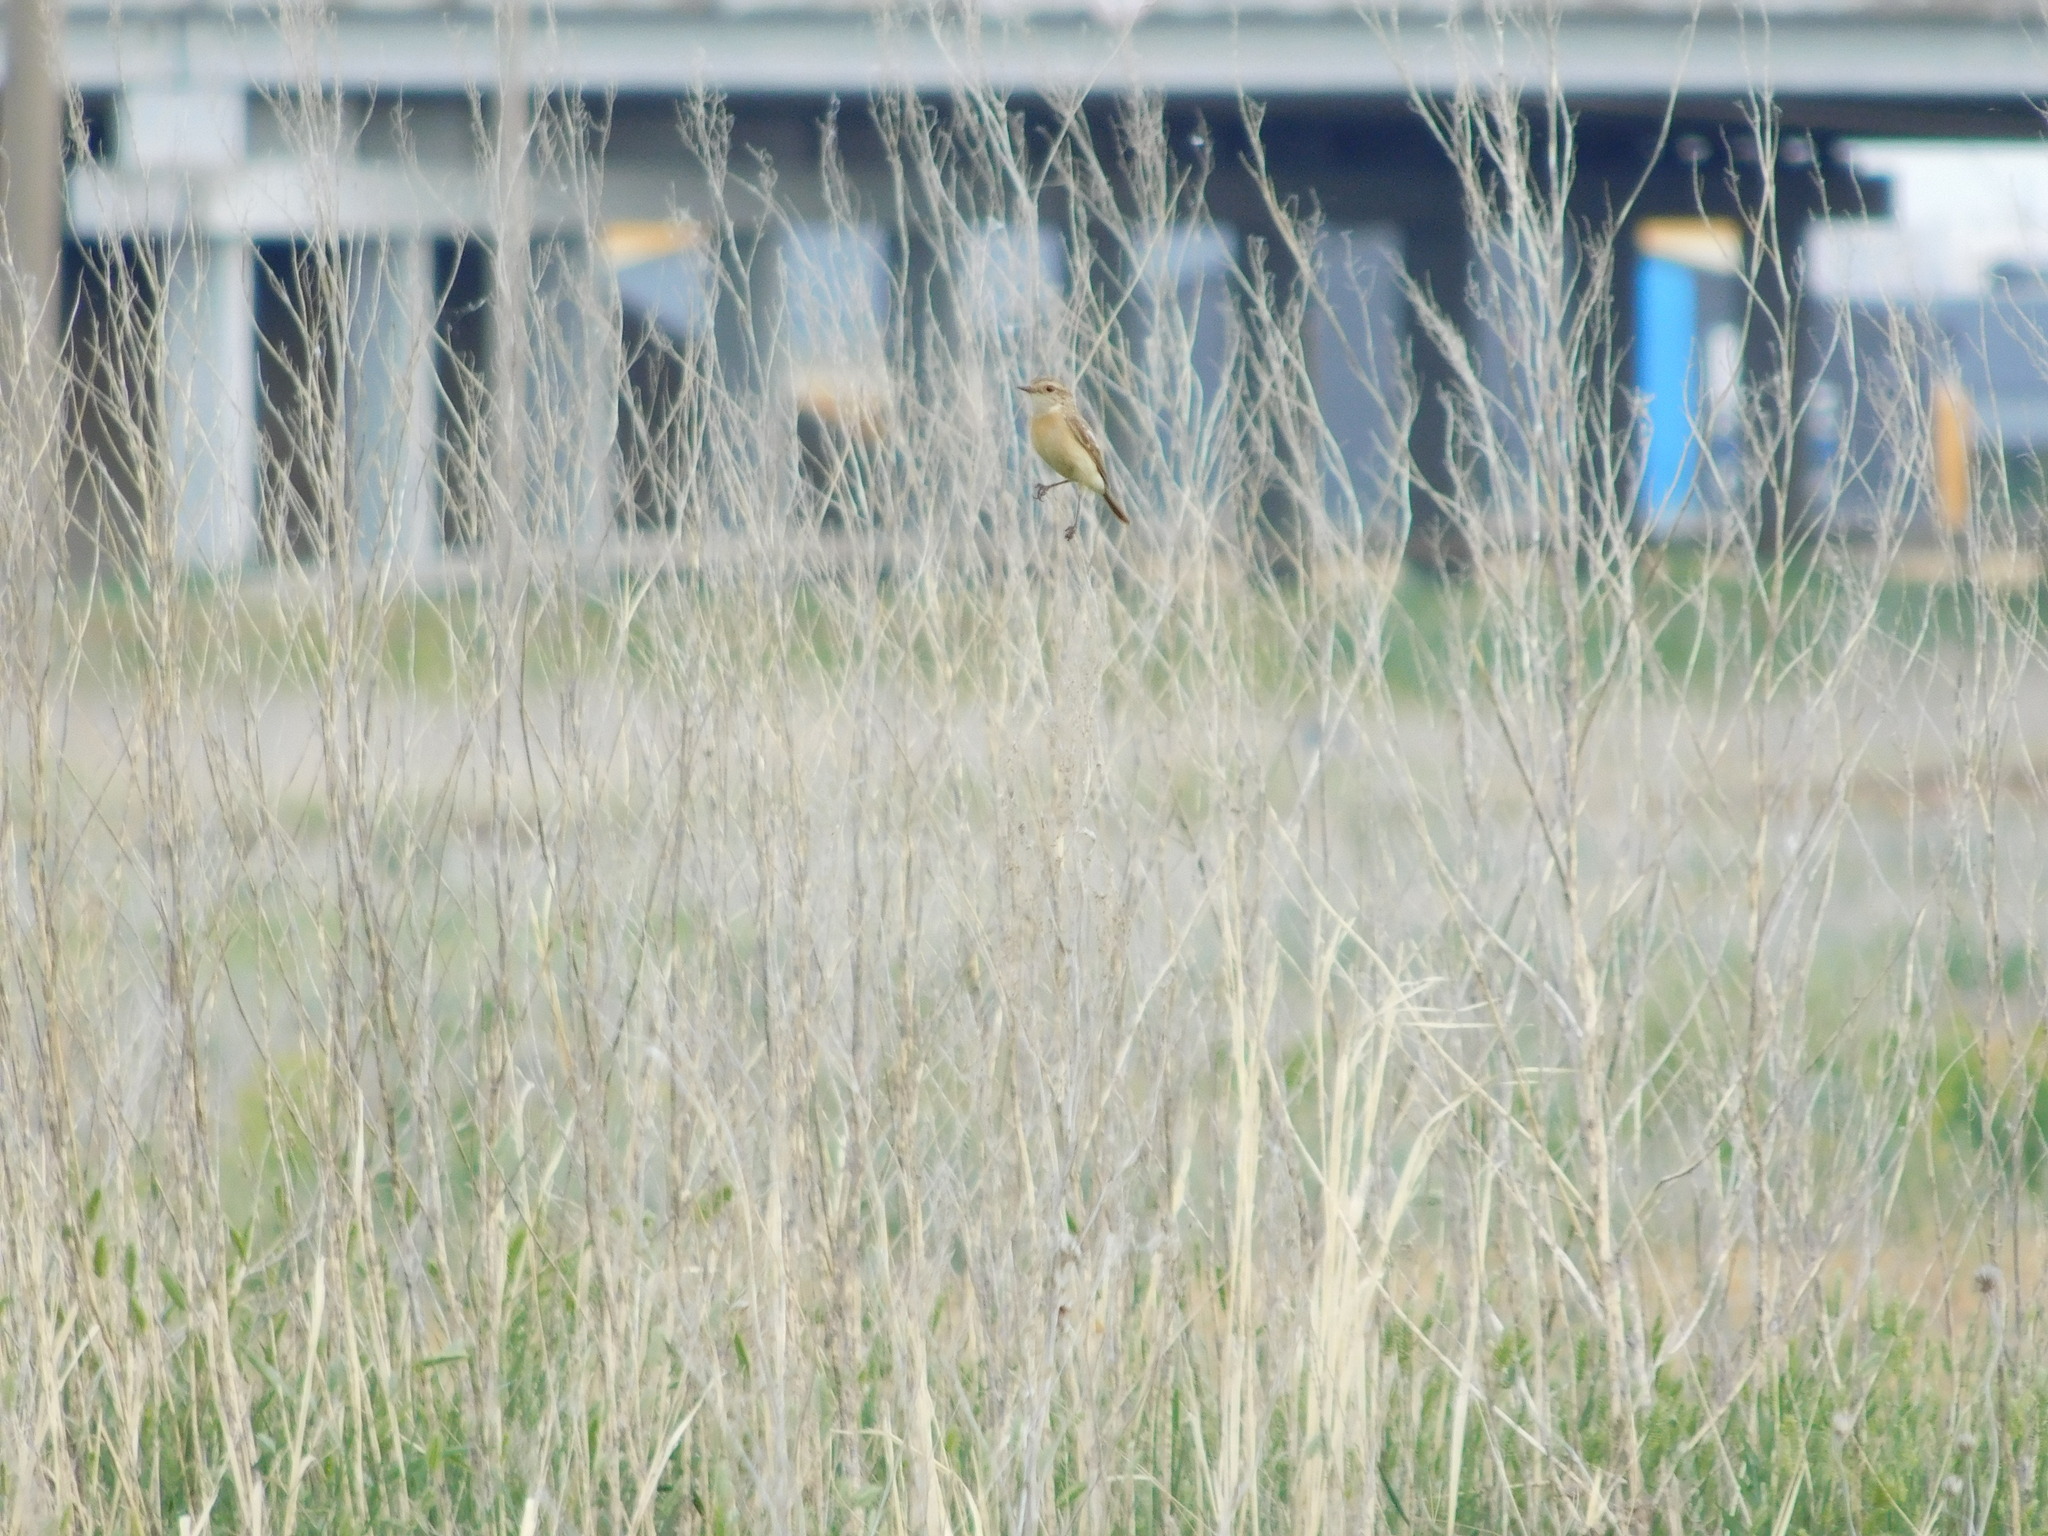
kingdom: Animalia
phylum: Chordata
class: Aves
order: Passeriformes
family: Muscicapidae
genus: Saxicola
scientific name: Saxicola maurus
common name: Siberian stonechat
